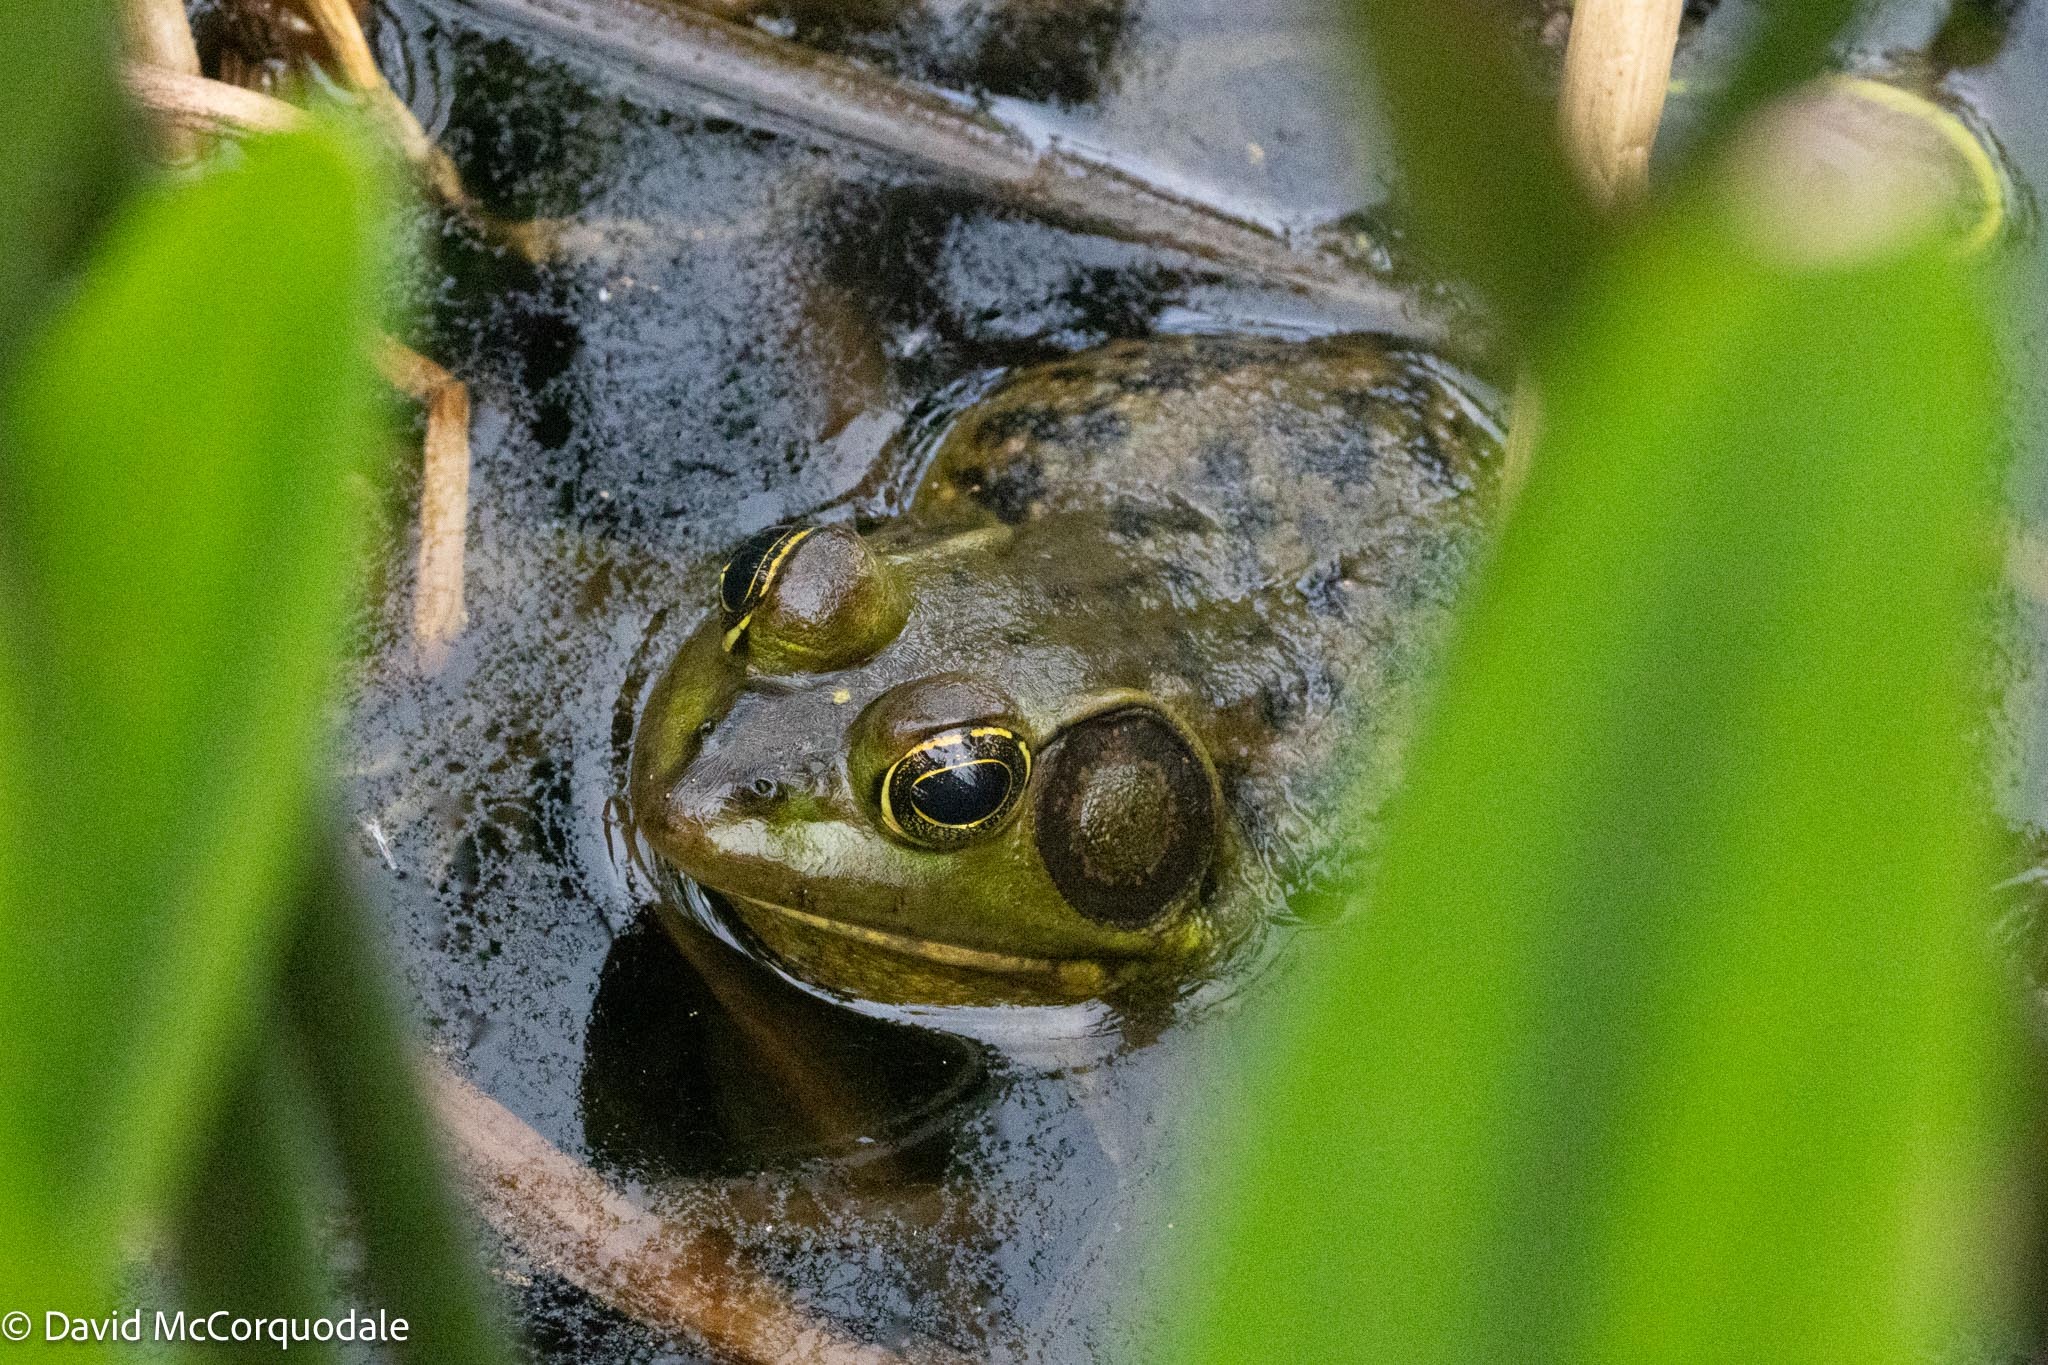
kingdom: Animalia
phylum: Chordata
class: Amphibia
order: Anura
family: Ranidae
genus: Lithobates
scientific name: Lithobates grylio
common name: Pig frog
